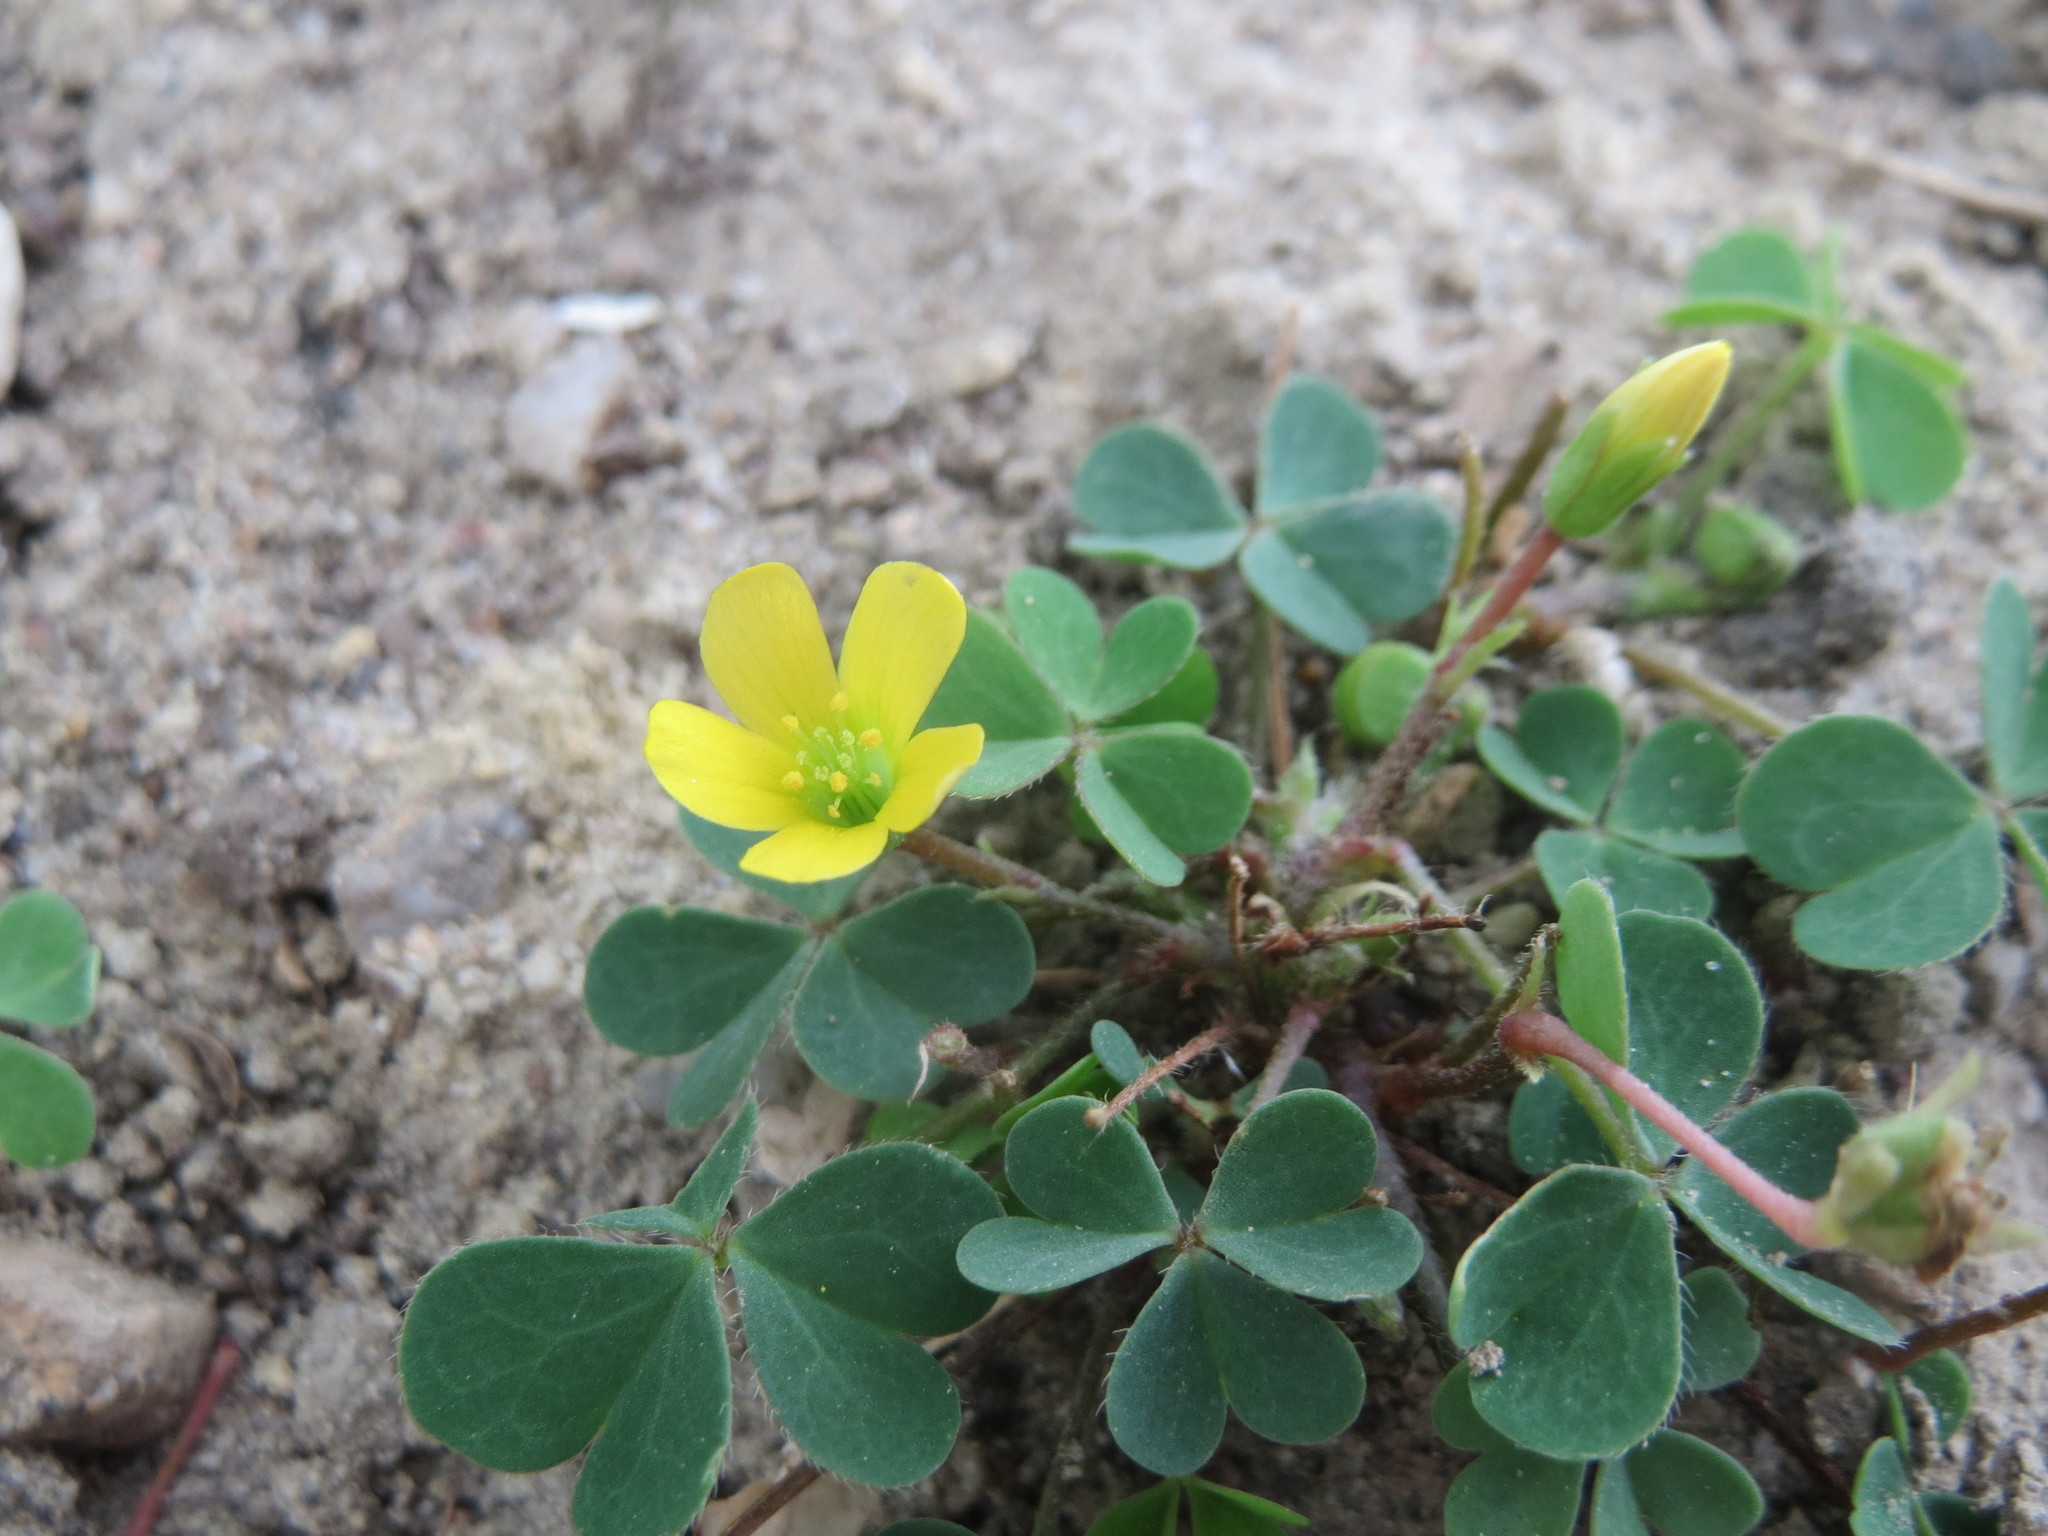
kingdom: Plantae
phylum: Tracheophyta
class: Magnoliopsida
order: Oxalidales
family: Oxalidaceae
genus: Oxalis
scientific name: Oxalis corniculata
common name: Procumbent yellow-sorrel
